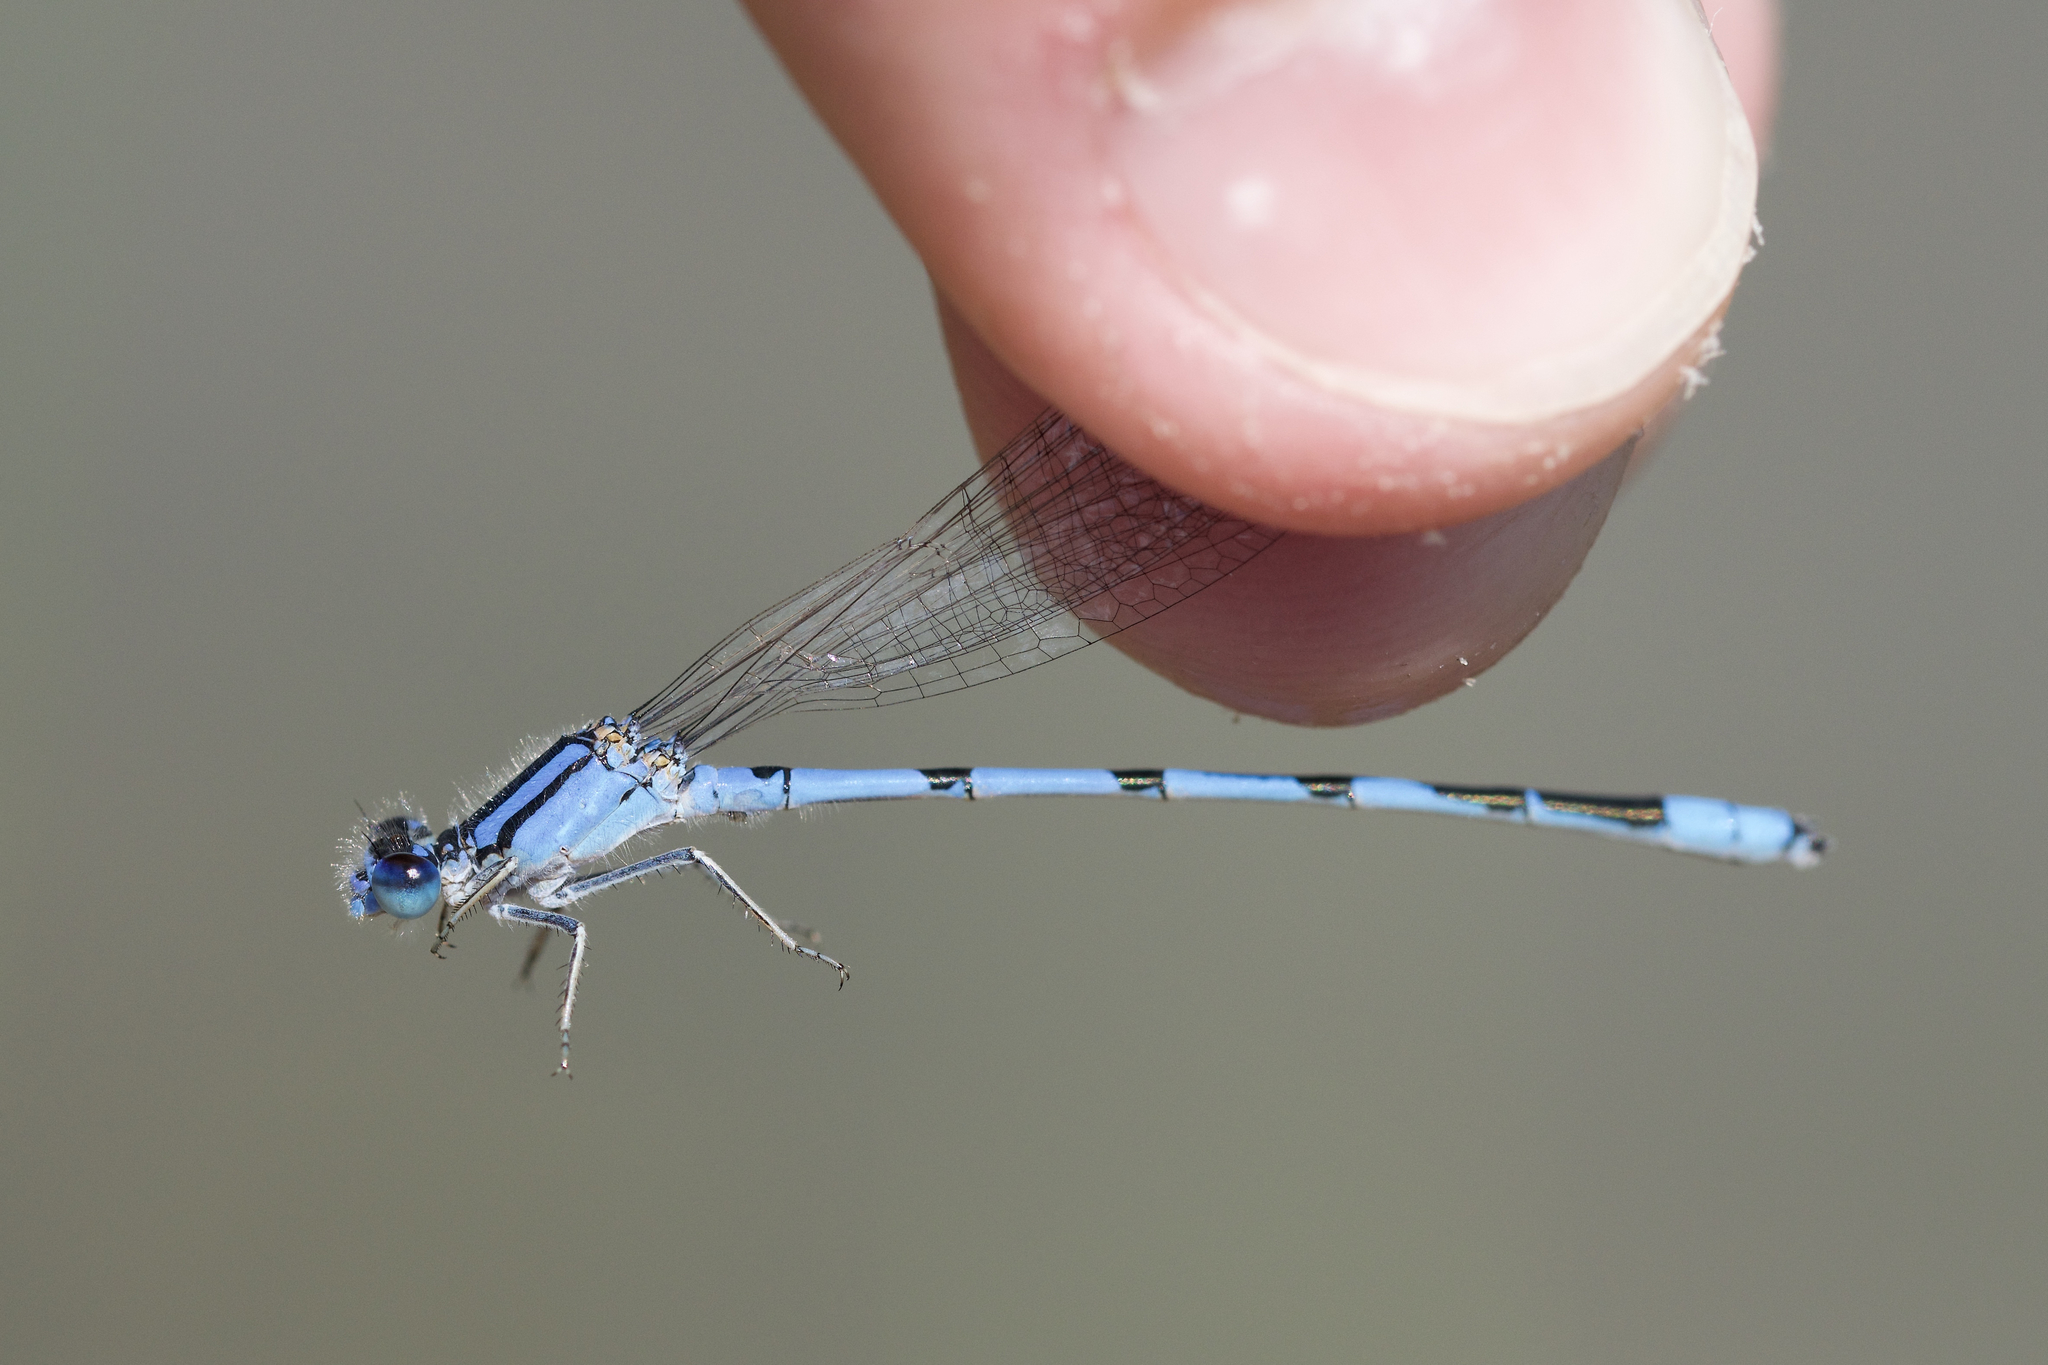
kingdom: Animalia
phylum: Arthropoda
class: Insecta
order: Odonata
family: Coenagrionidae
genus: Enallagma
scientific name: Enallagma civile
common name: Damselfly
